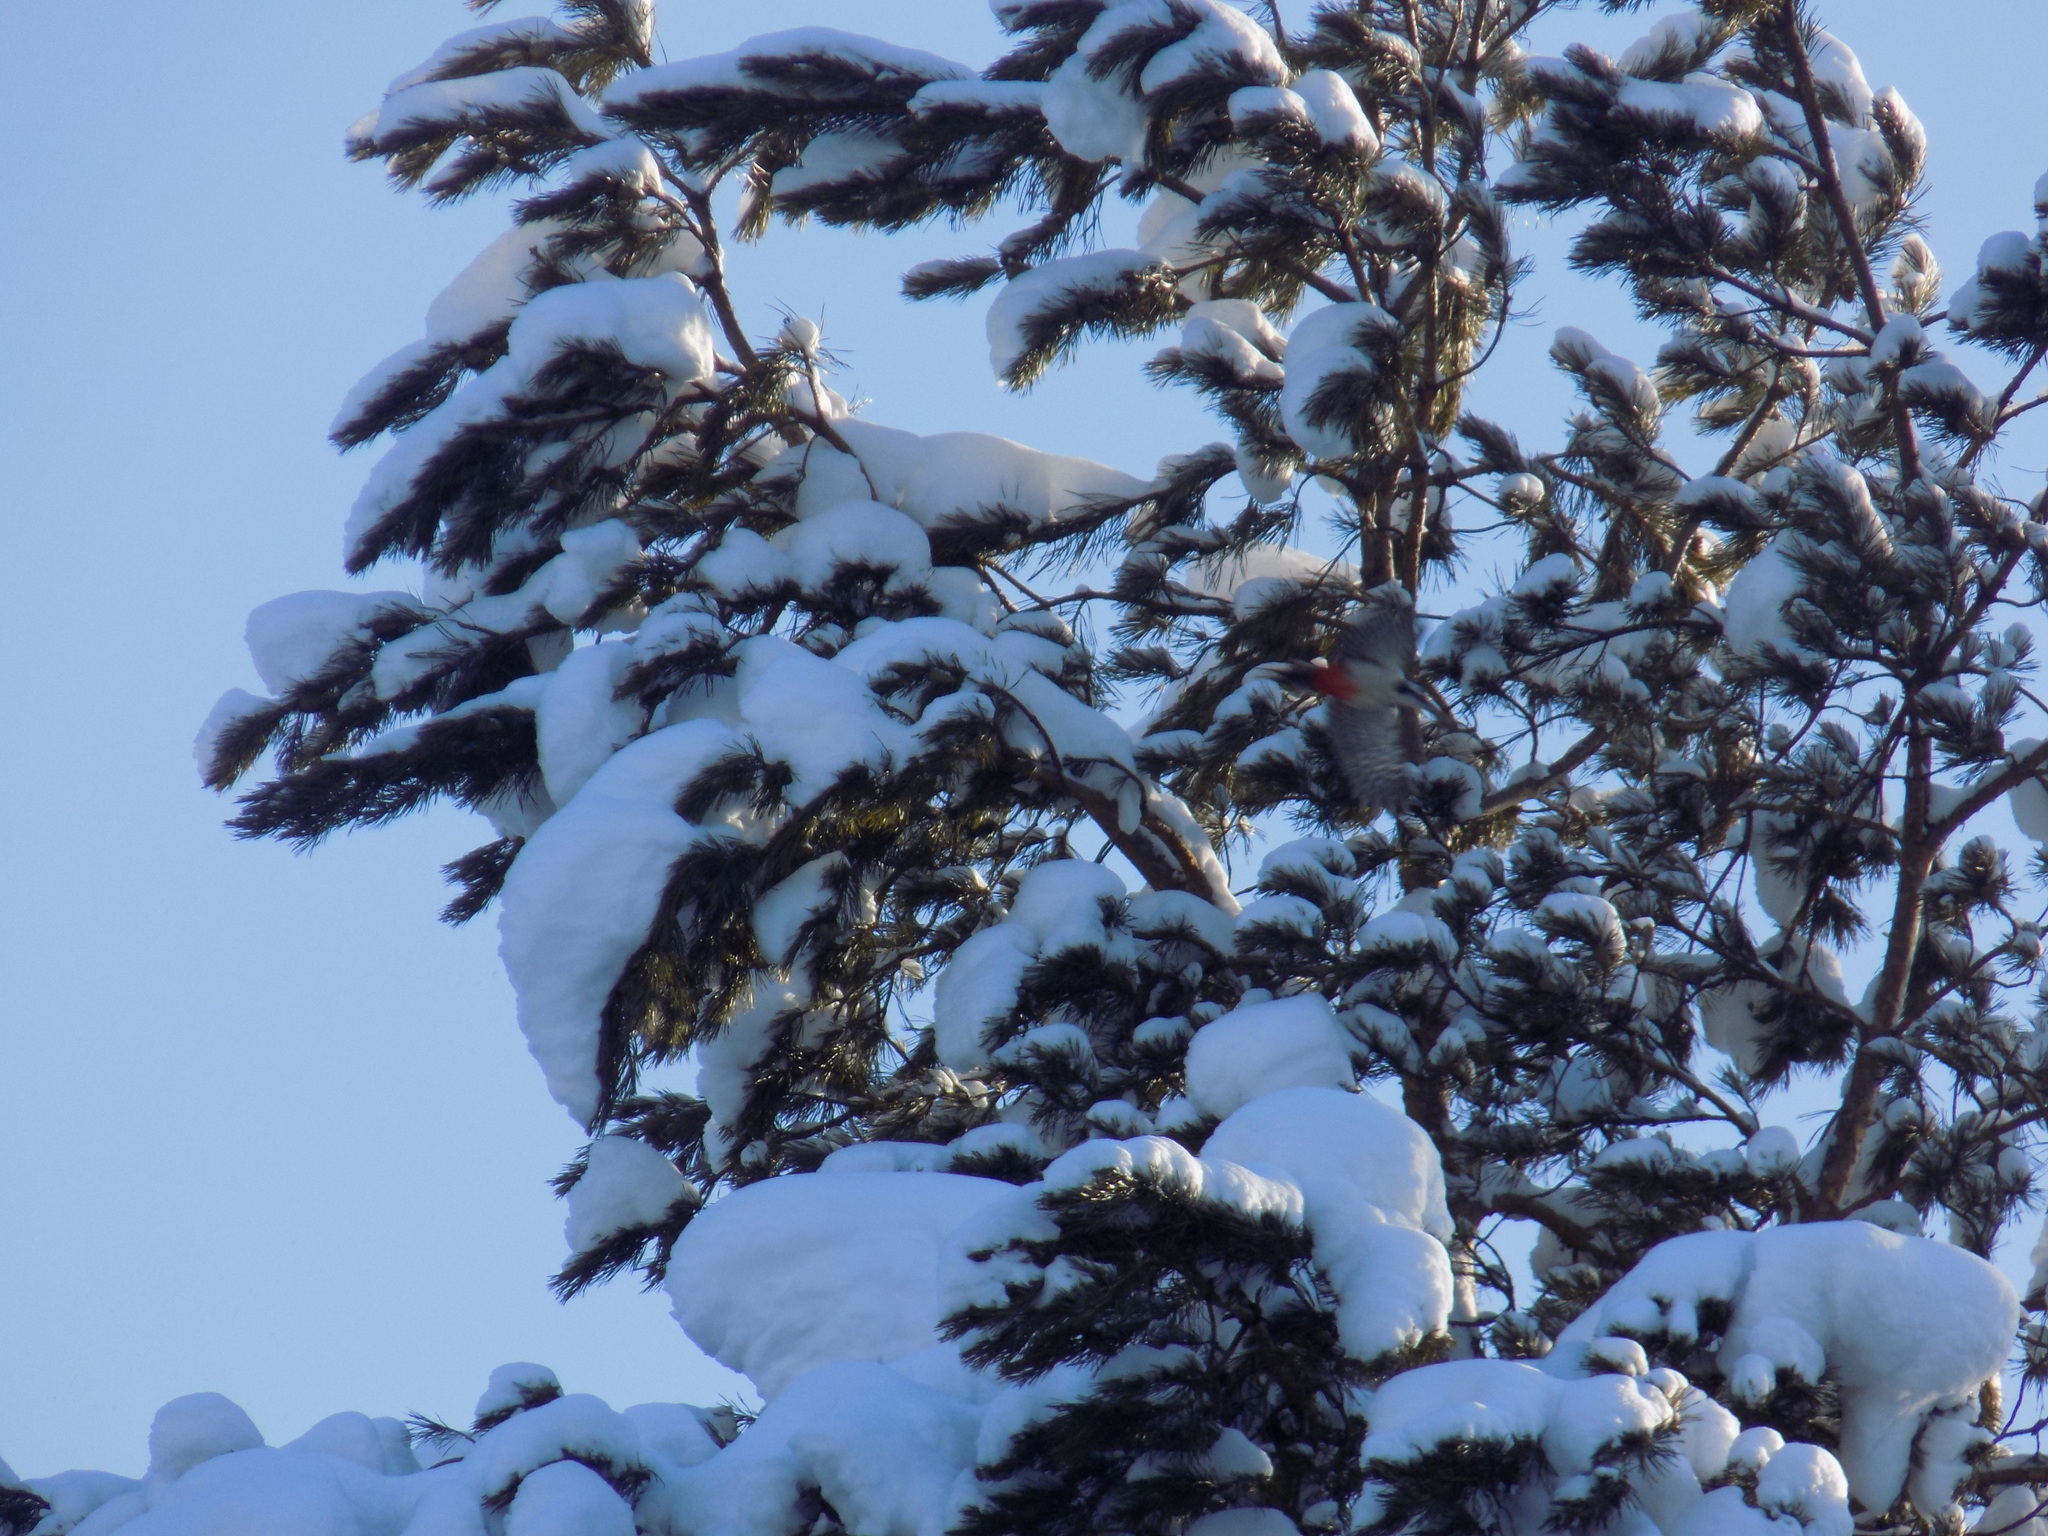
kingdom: Animalia
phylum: Chordata
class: Aves
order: Piciformes
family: Picidae
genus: Dendrocopos
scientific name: Dendrocopos major
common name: Great spotted woodpecker
